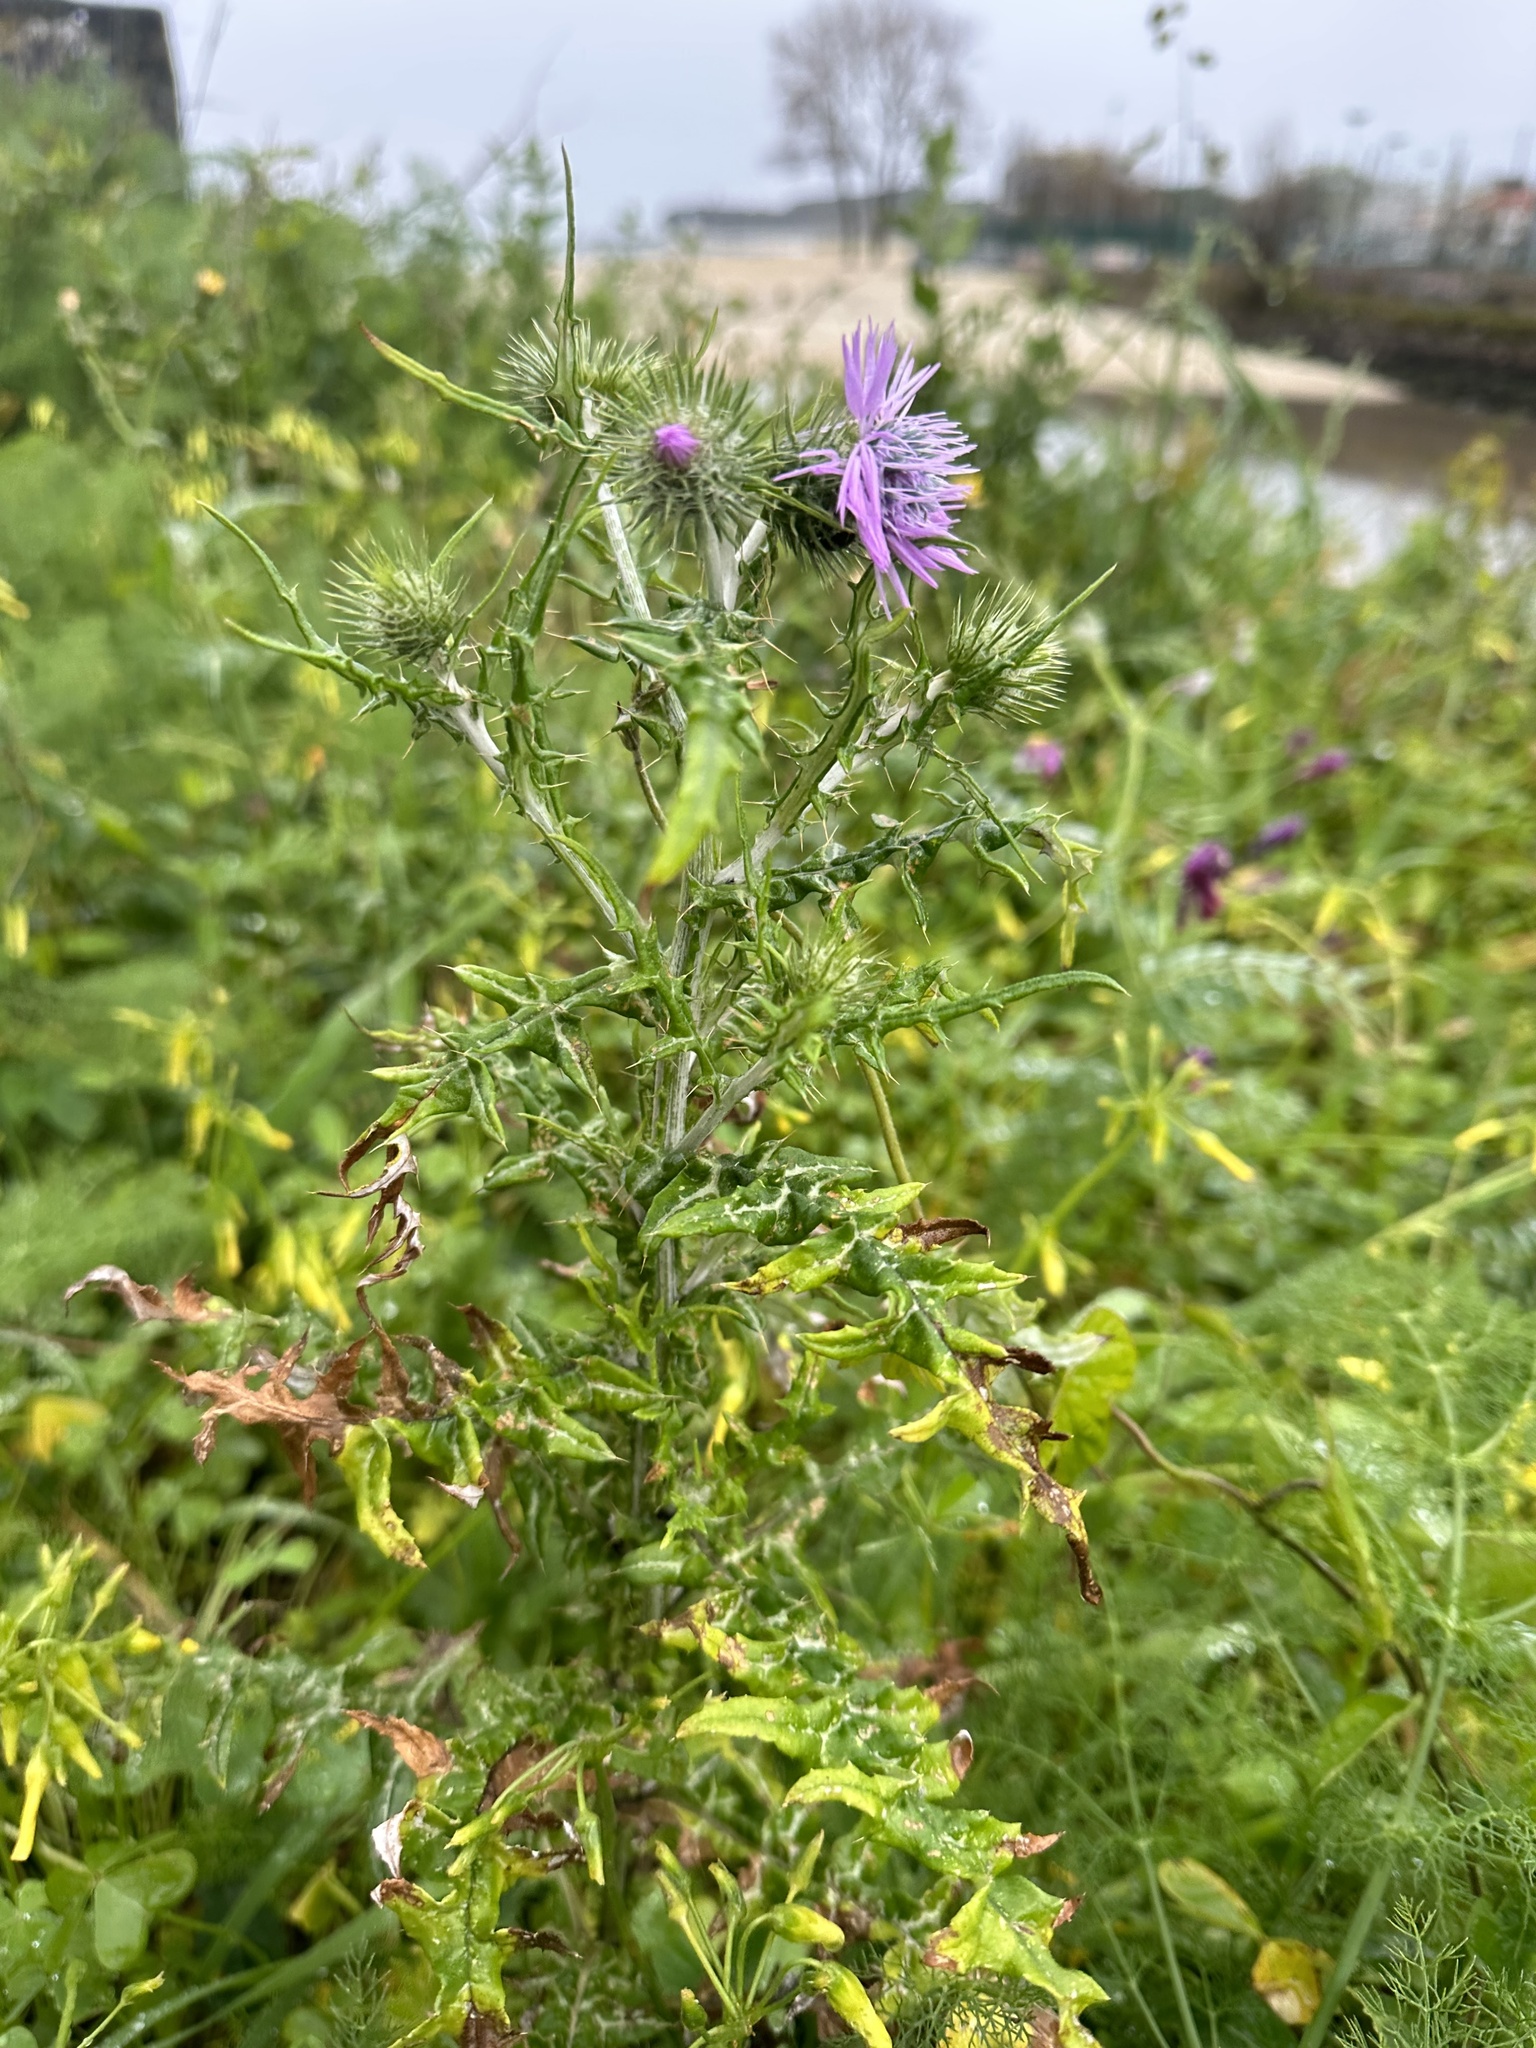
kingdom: Plantae
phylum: Tracheophyta
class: Magnoliopsida
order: Asterales
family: Asteraceae
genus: Galactites
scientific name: Galactites tomentosa
